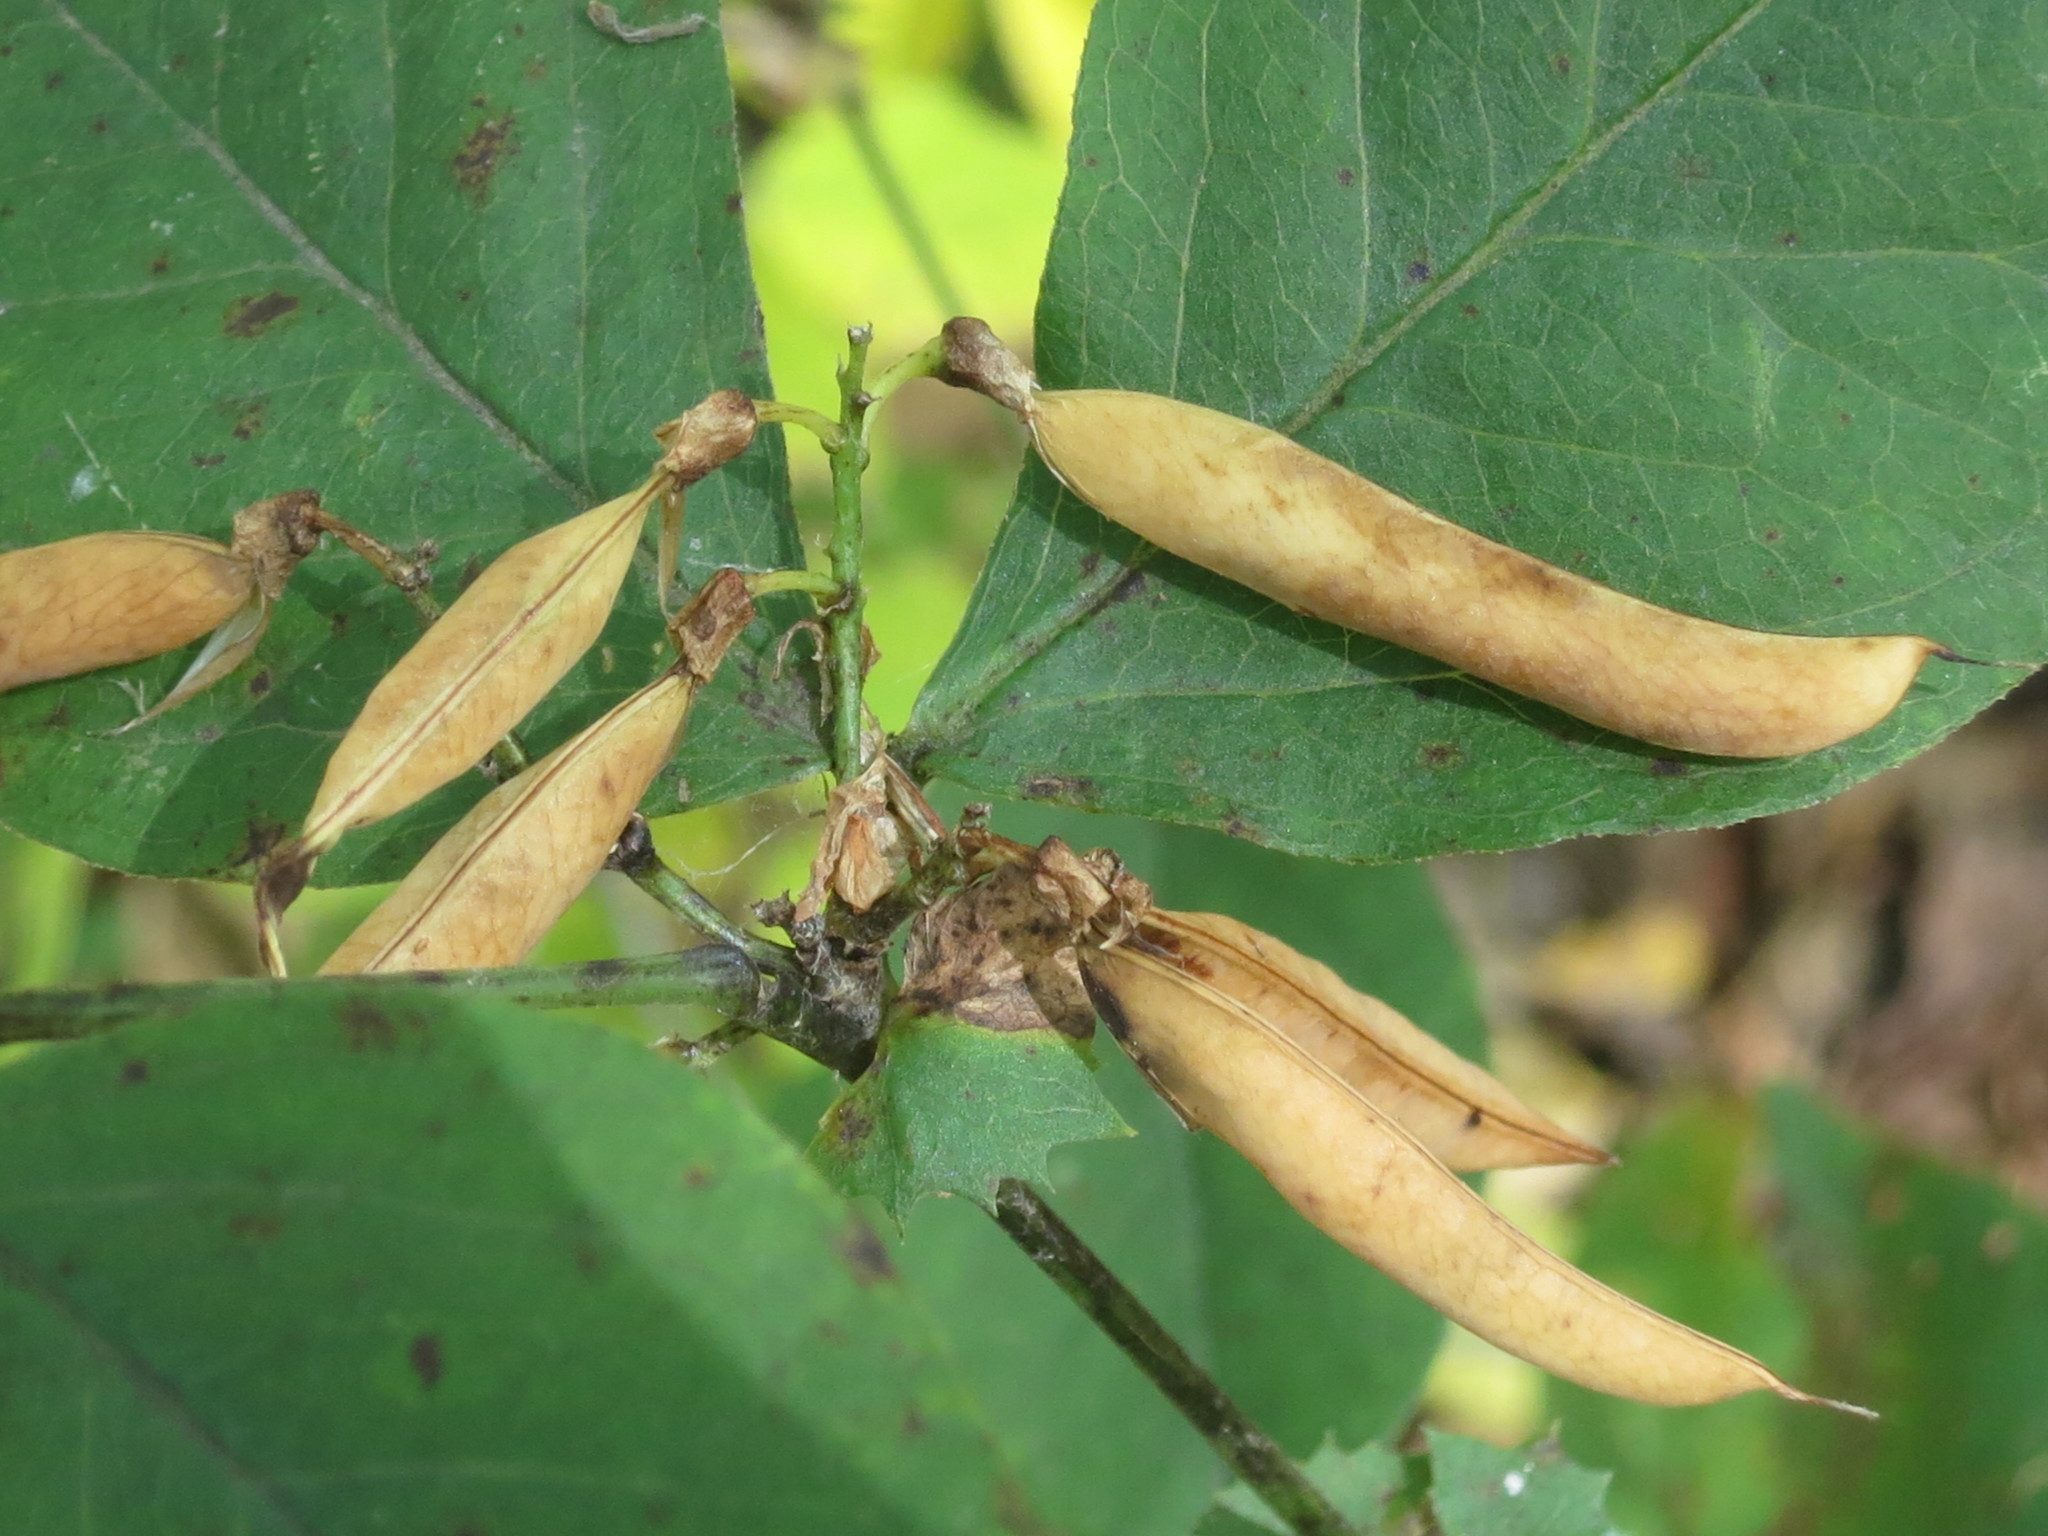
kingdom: Plantae
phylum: Tracheophyta
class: Magnoliopsida
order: Fabales
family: Fabaceae
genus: Vicia
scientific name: Vicia unijuga
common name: Two-leaf vetch
